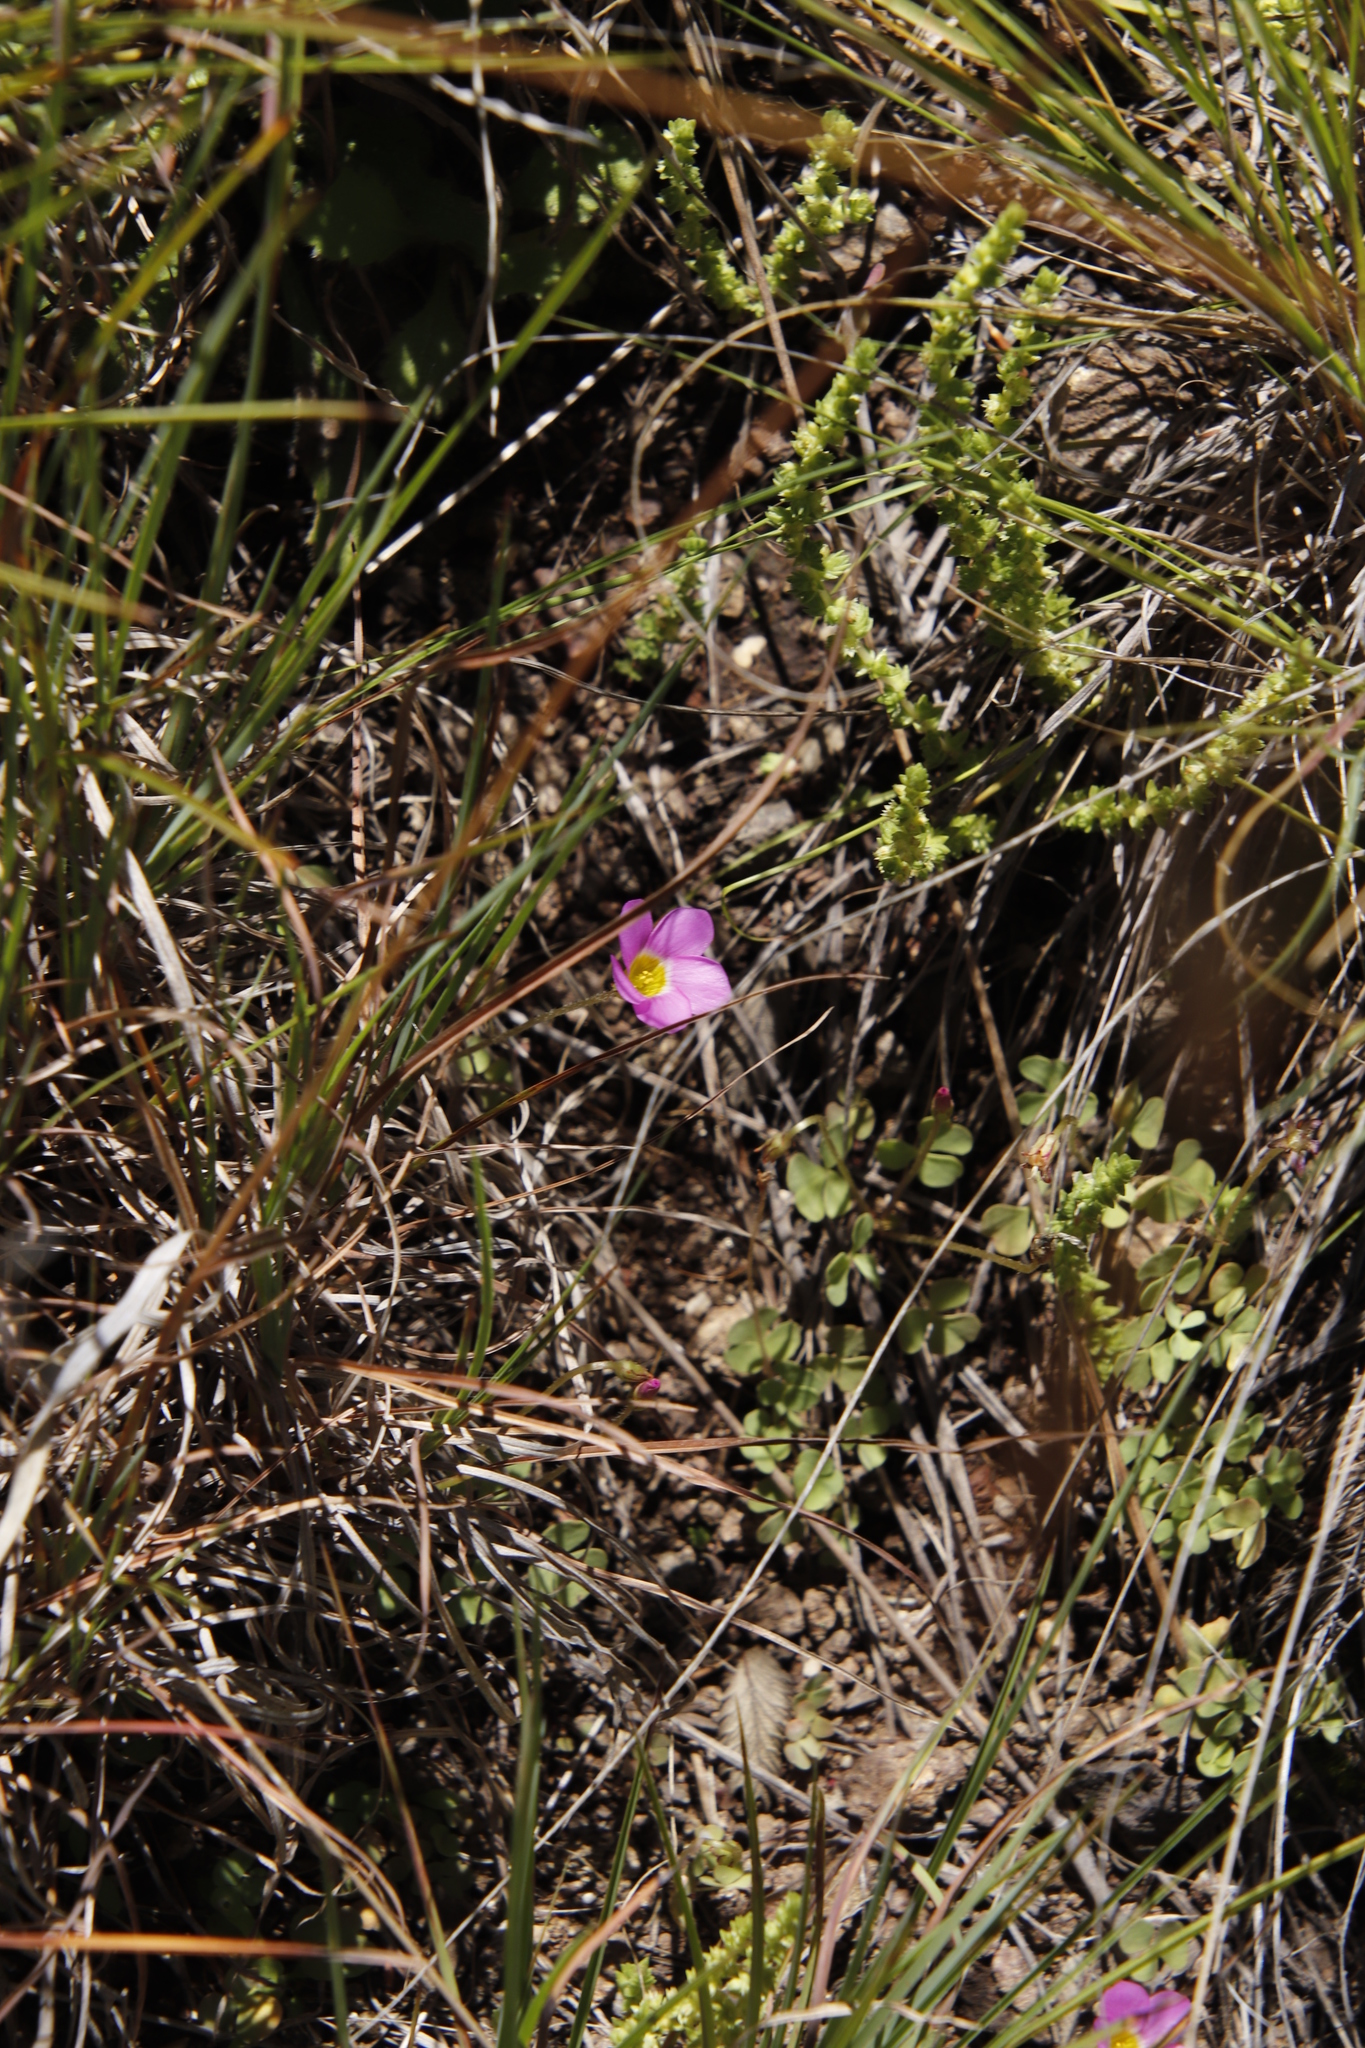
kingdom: Plantae
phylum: Tracheophyta
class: Magnoliopsida
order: Oxalidales
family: Oxalidaceae
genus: Oxalis
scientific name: Oxalis obliquifolia
